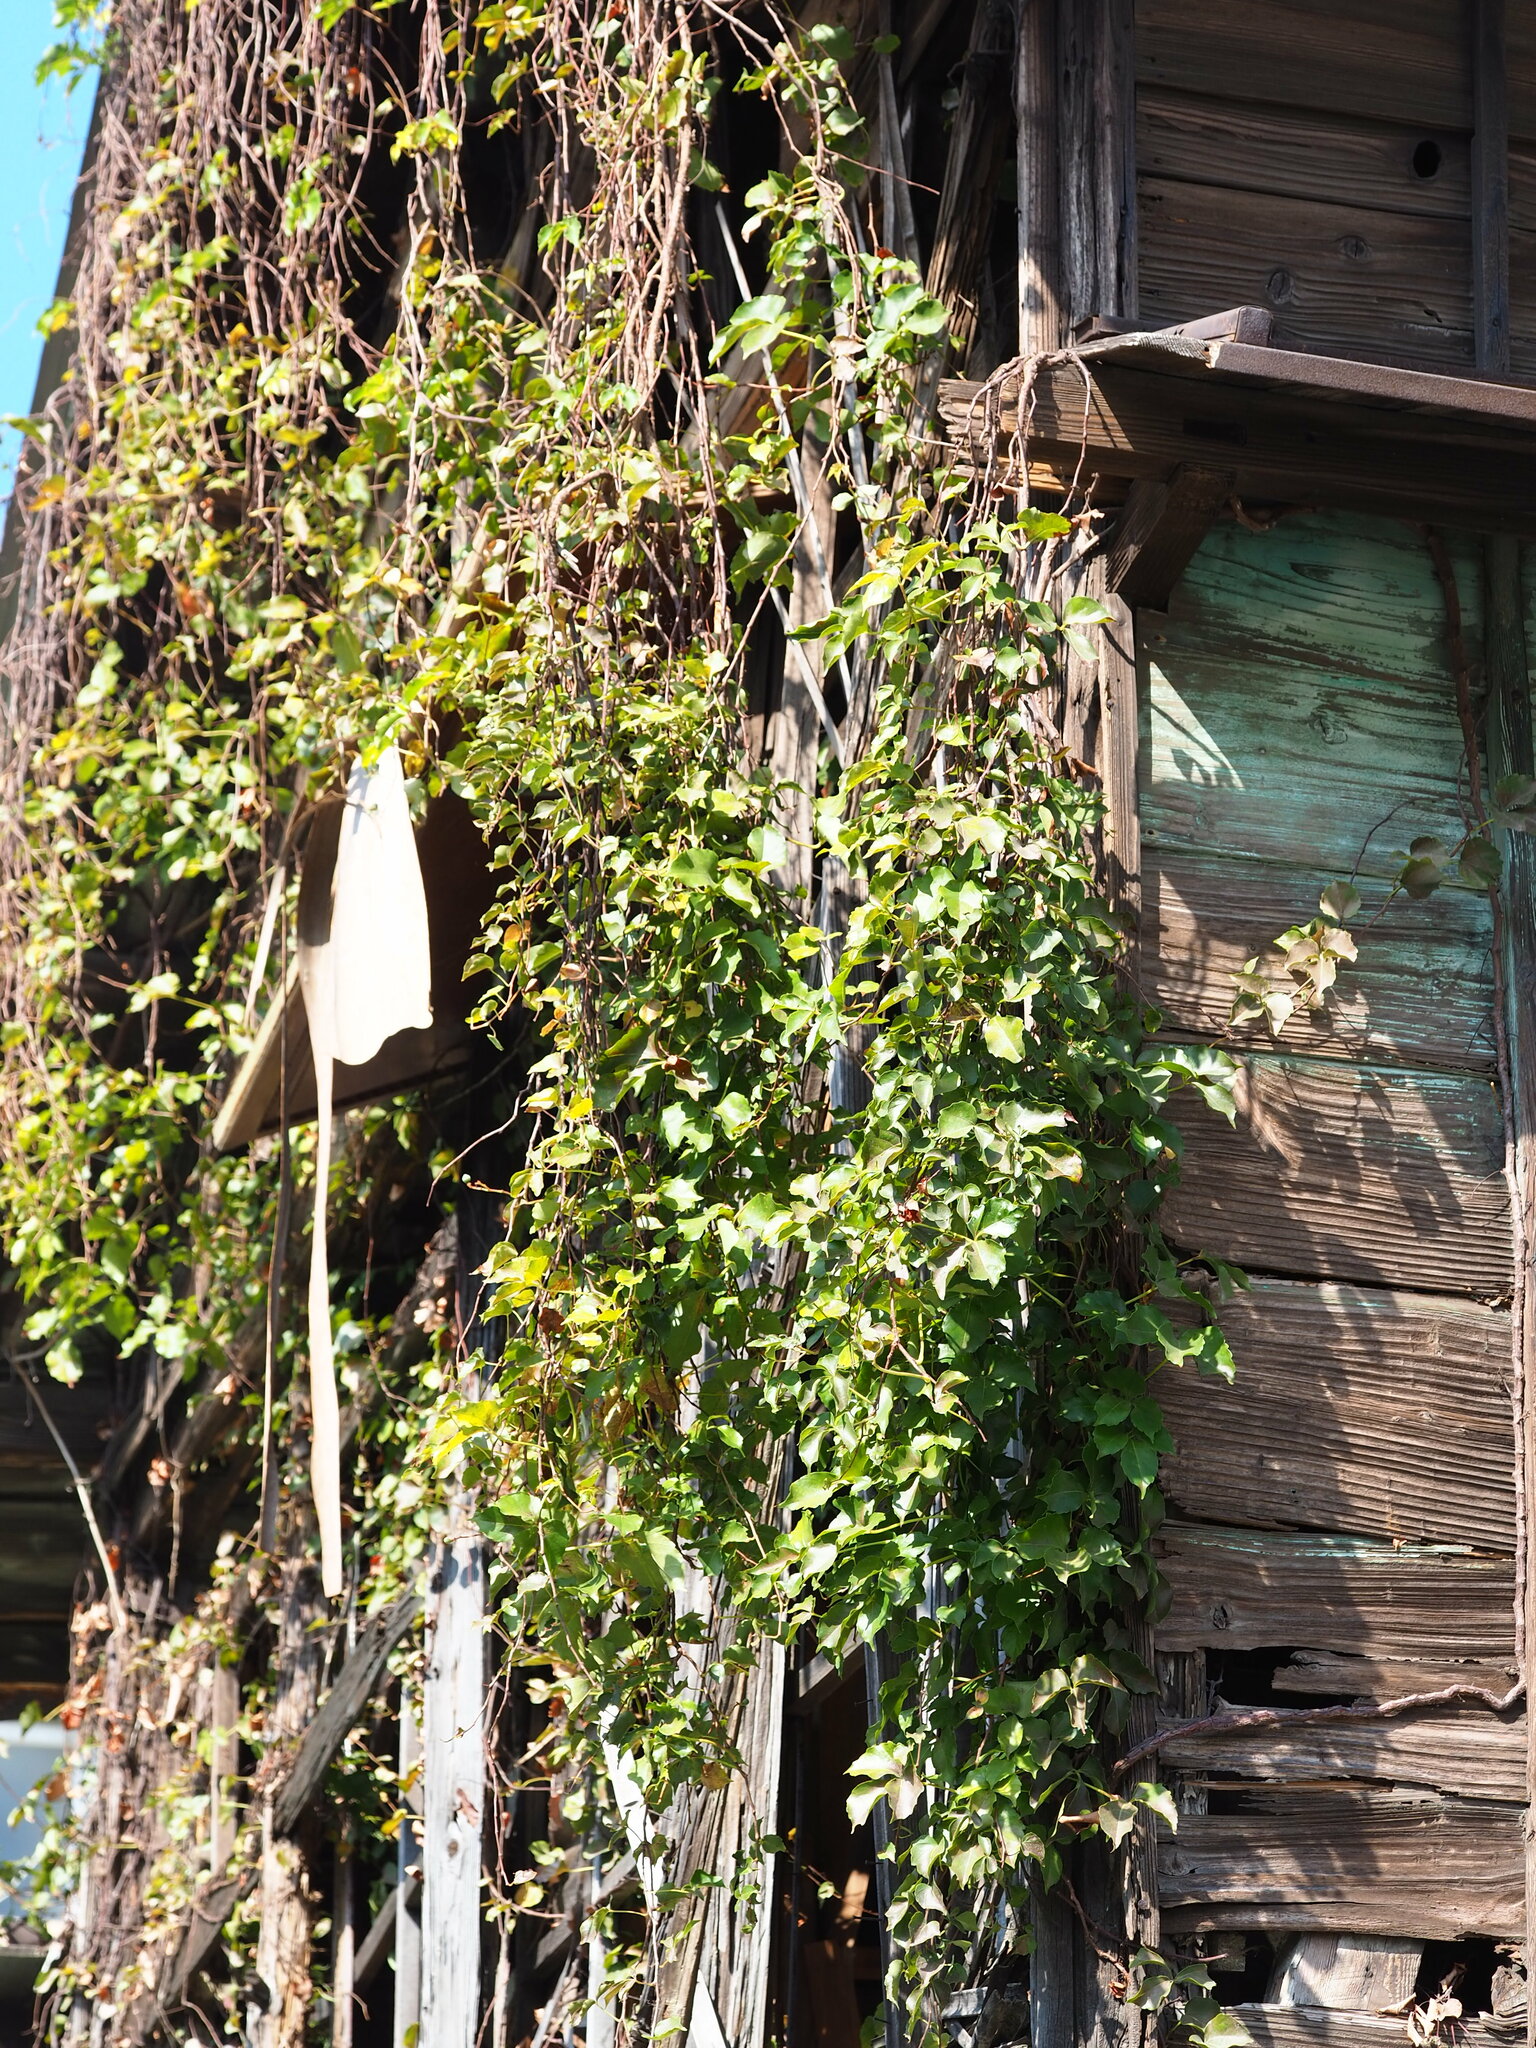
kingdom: Plantae
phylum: Tracheophyta
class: Magnoliopsida
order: Vitales
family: Vitaceae
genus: Parthenocissus
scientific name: Parthenocissus tricuspidata
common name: Boston ivy
